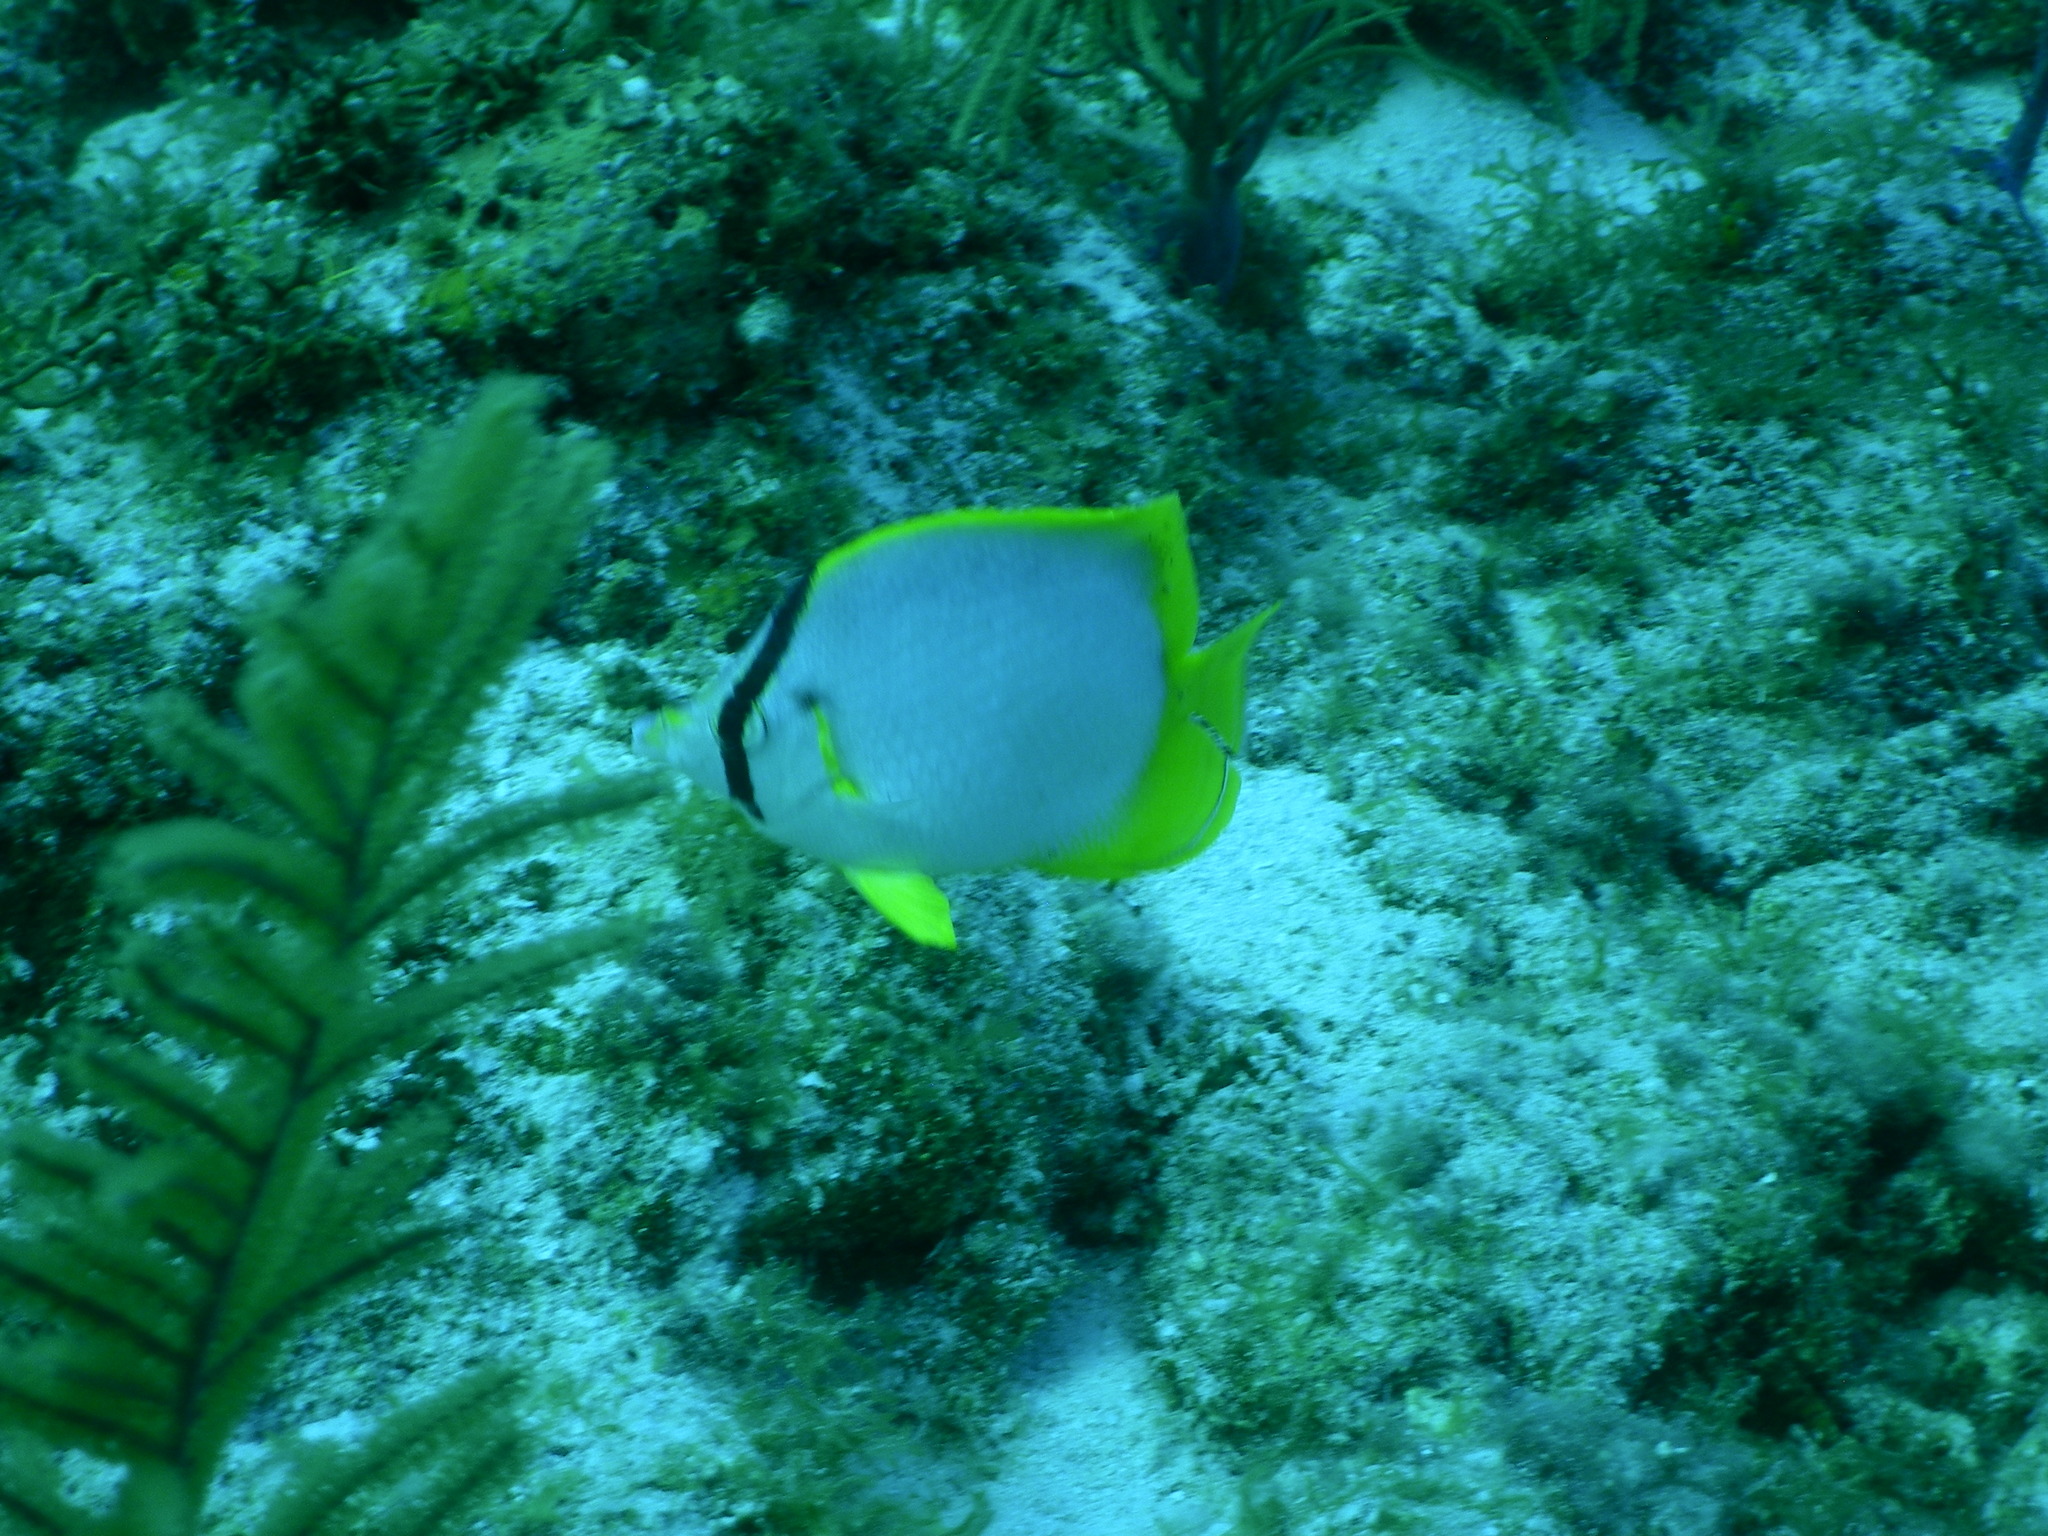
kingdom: Animalia
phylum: Chordata
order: Perciformes
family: Chaetodontidae
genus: Chaetodon
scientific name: Chaetodon ocellatus
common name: Spotfin butterflyfish
